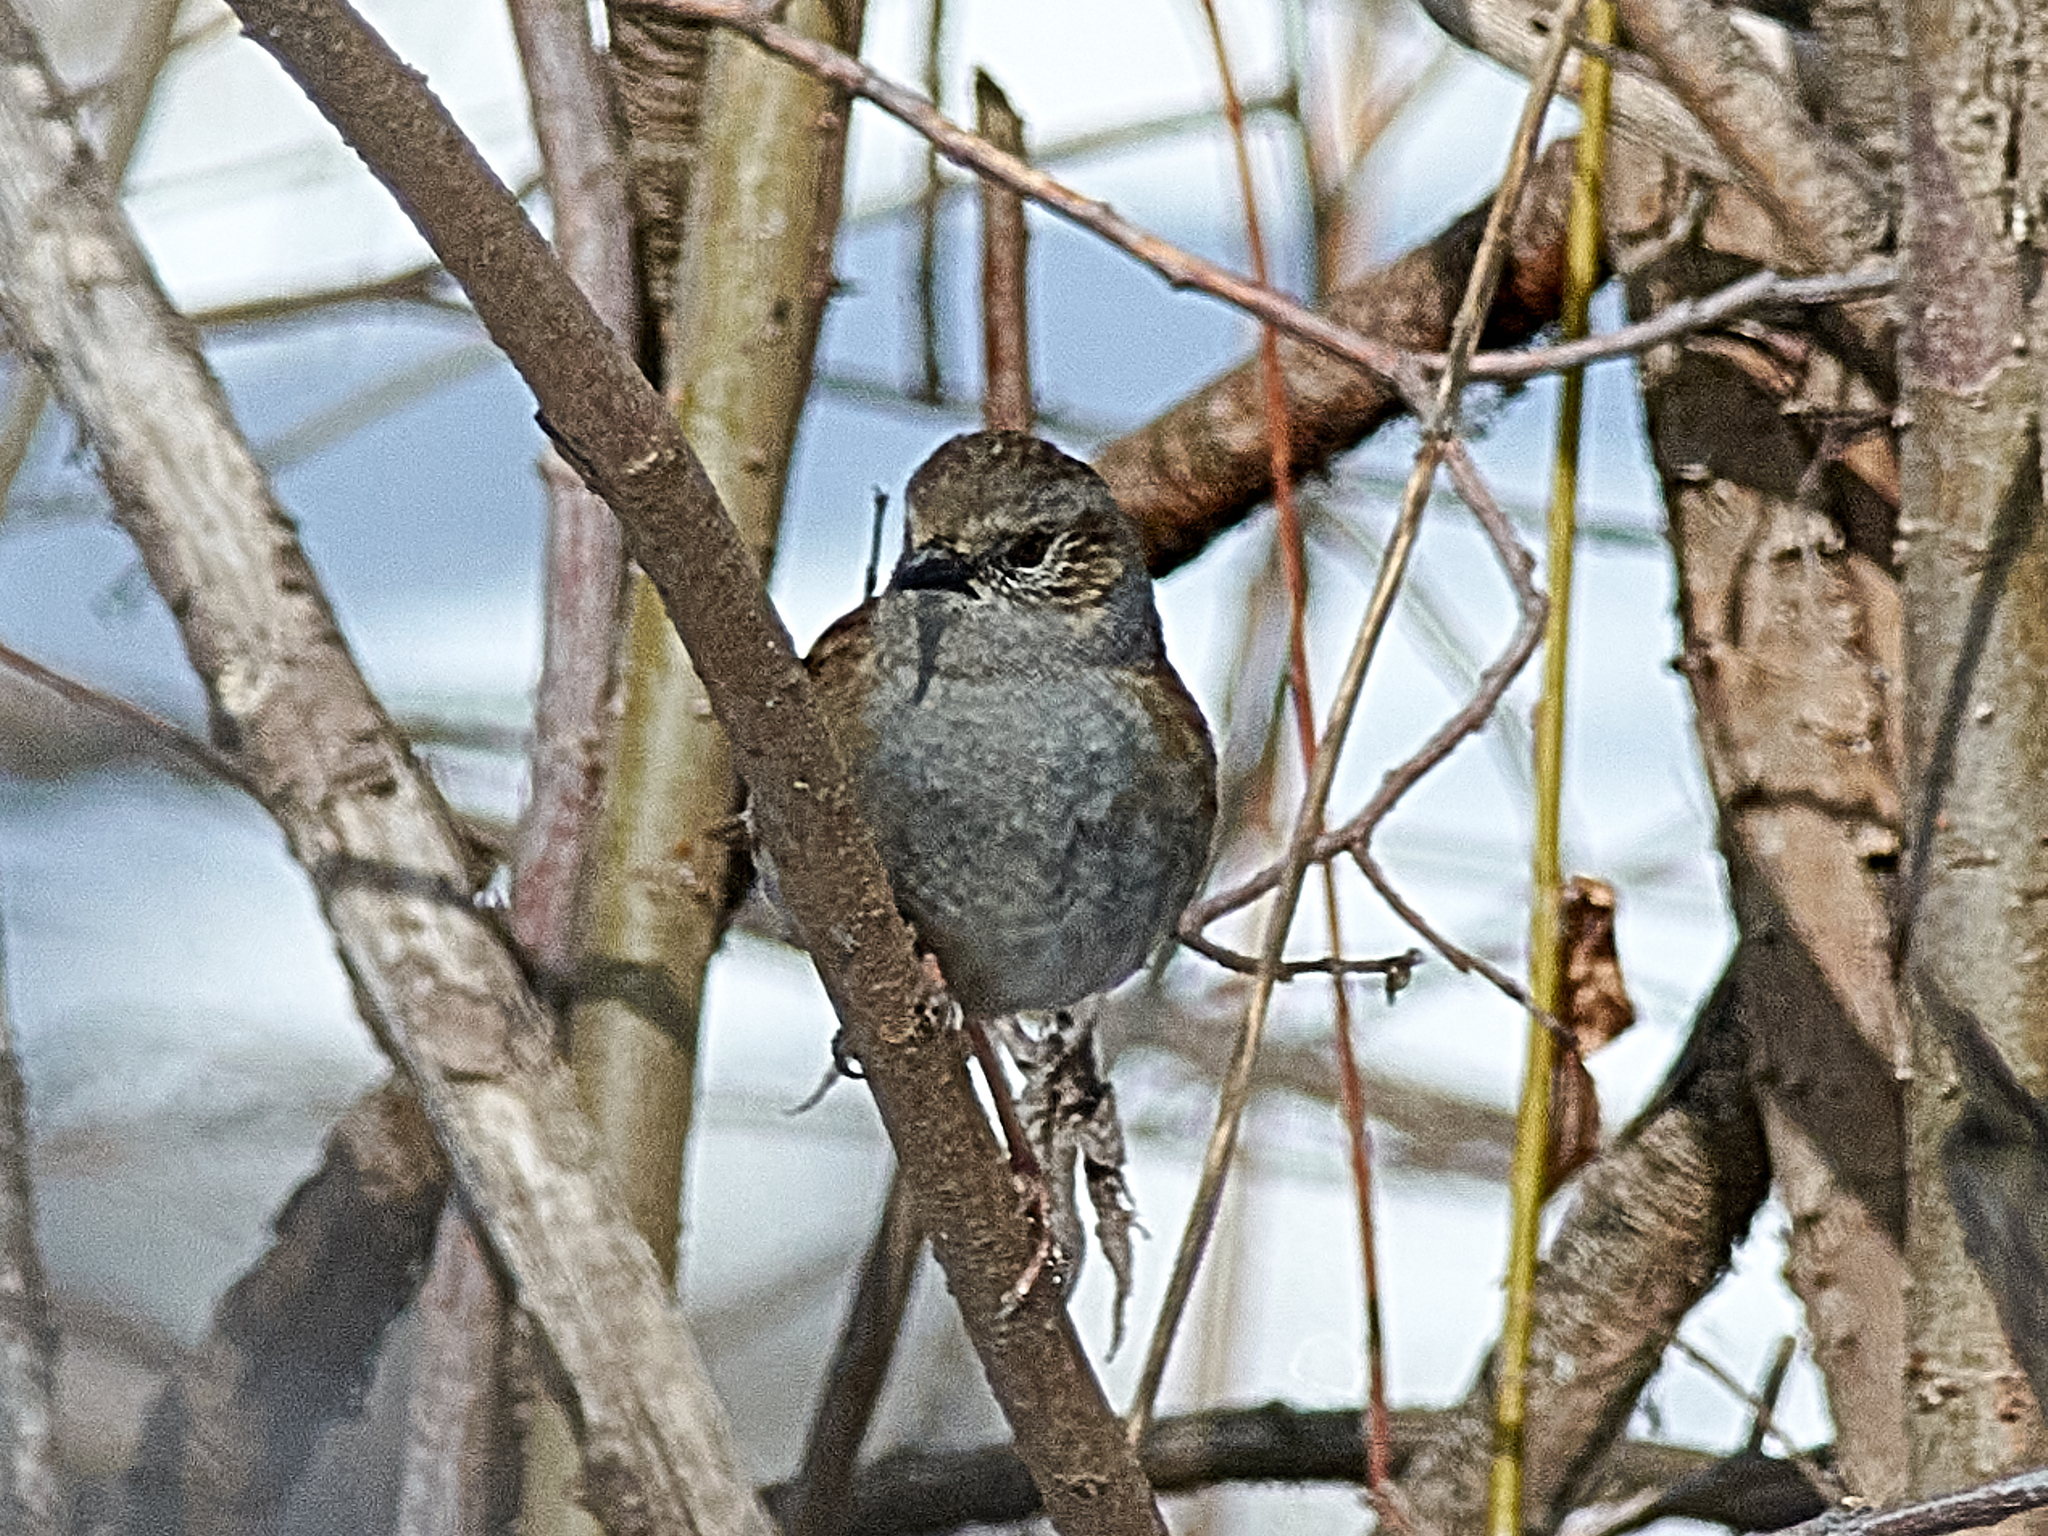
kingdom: Animalia
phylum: Chordata
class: Aves
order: Passeriformes
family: Prunellidae
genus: Prunella
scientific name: Prunella modularis
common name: Dunnock
